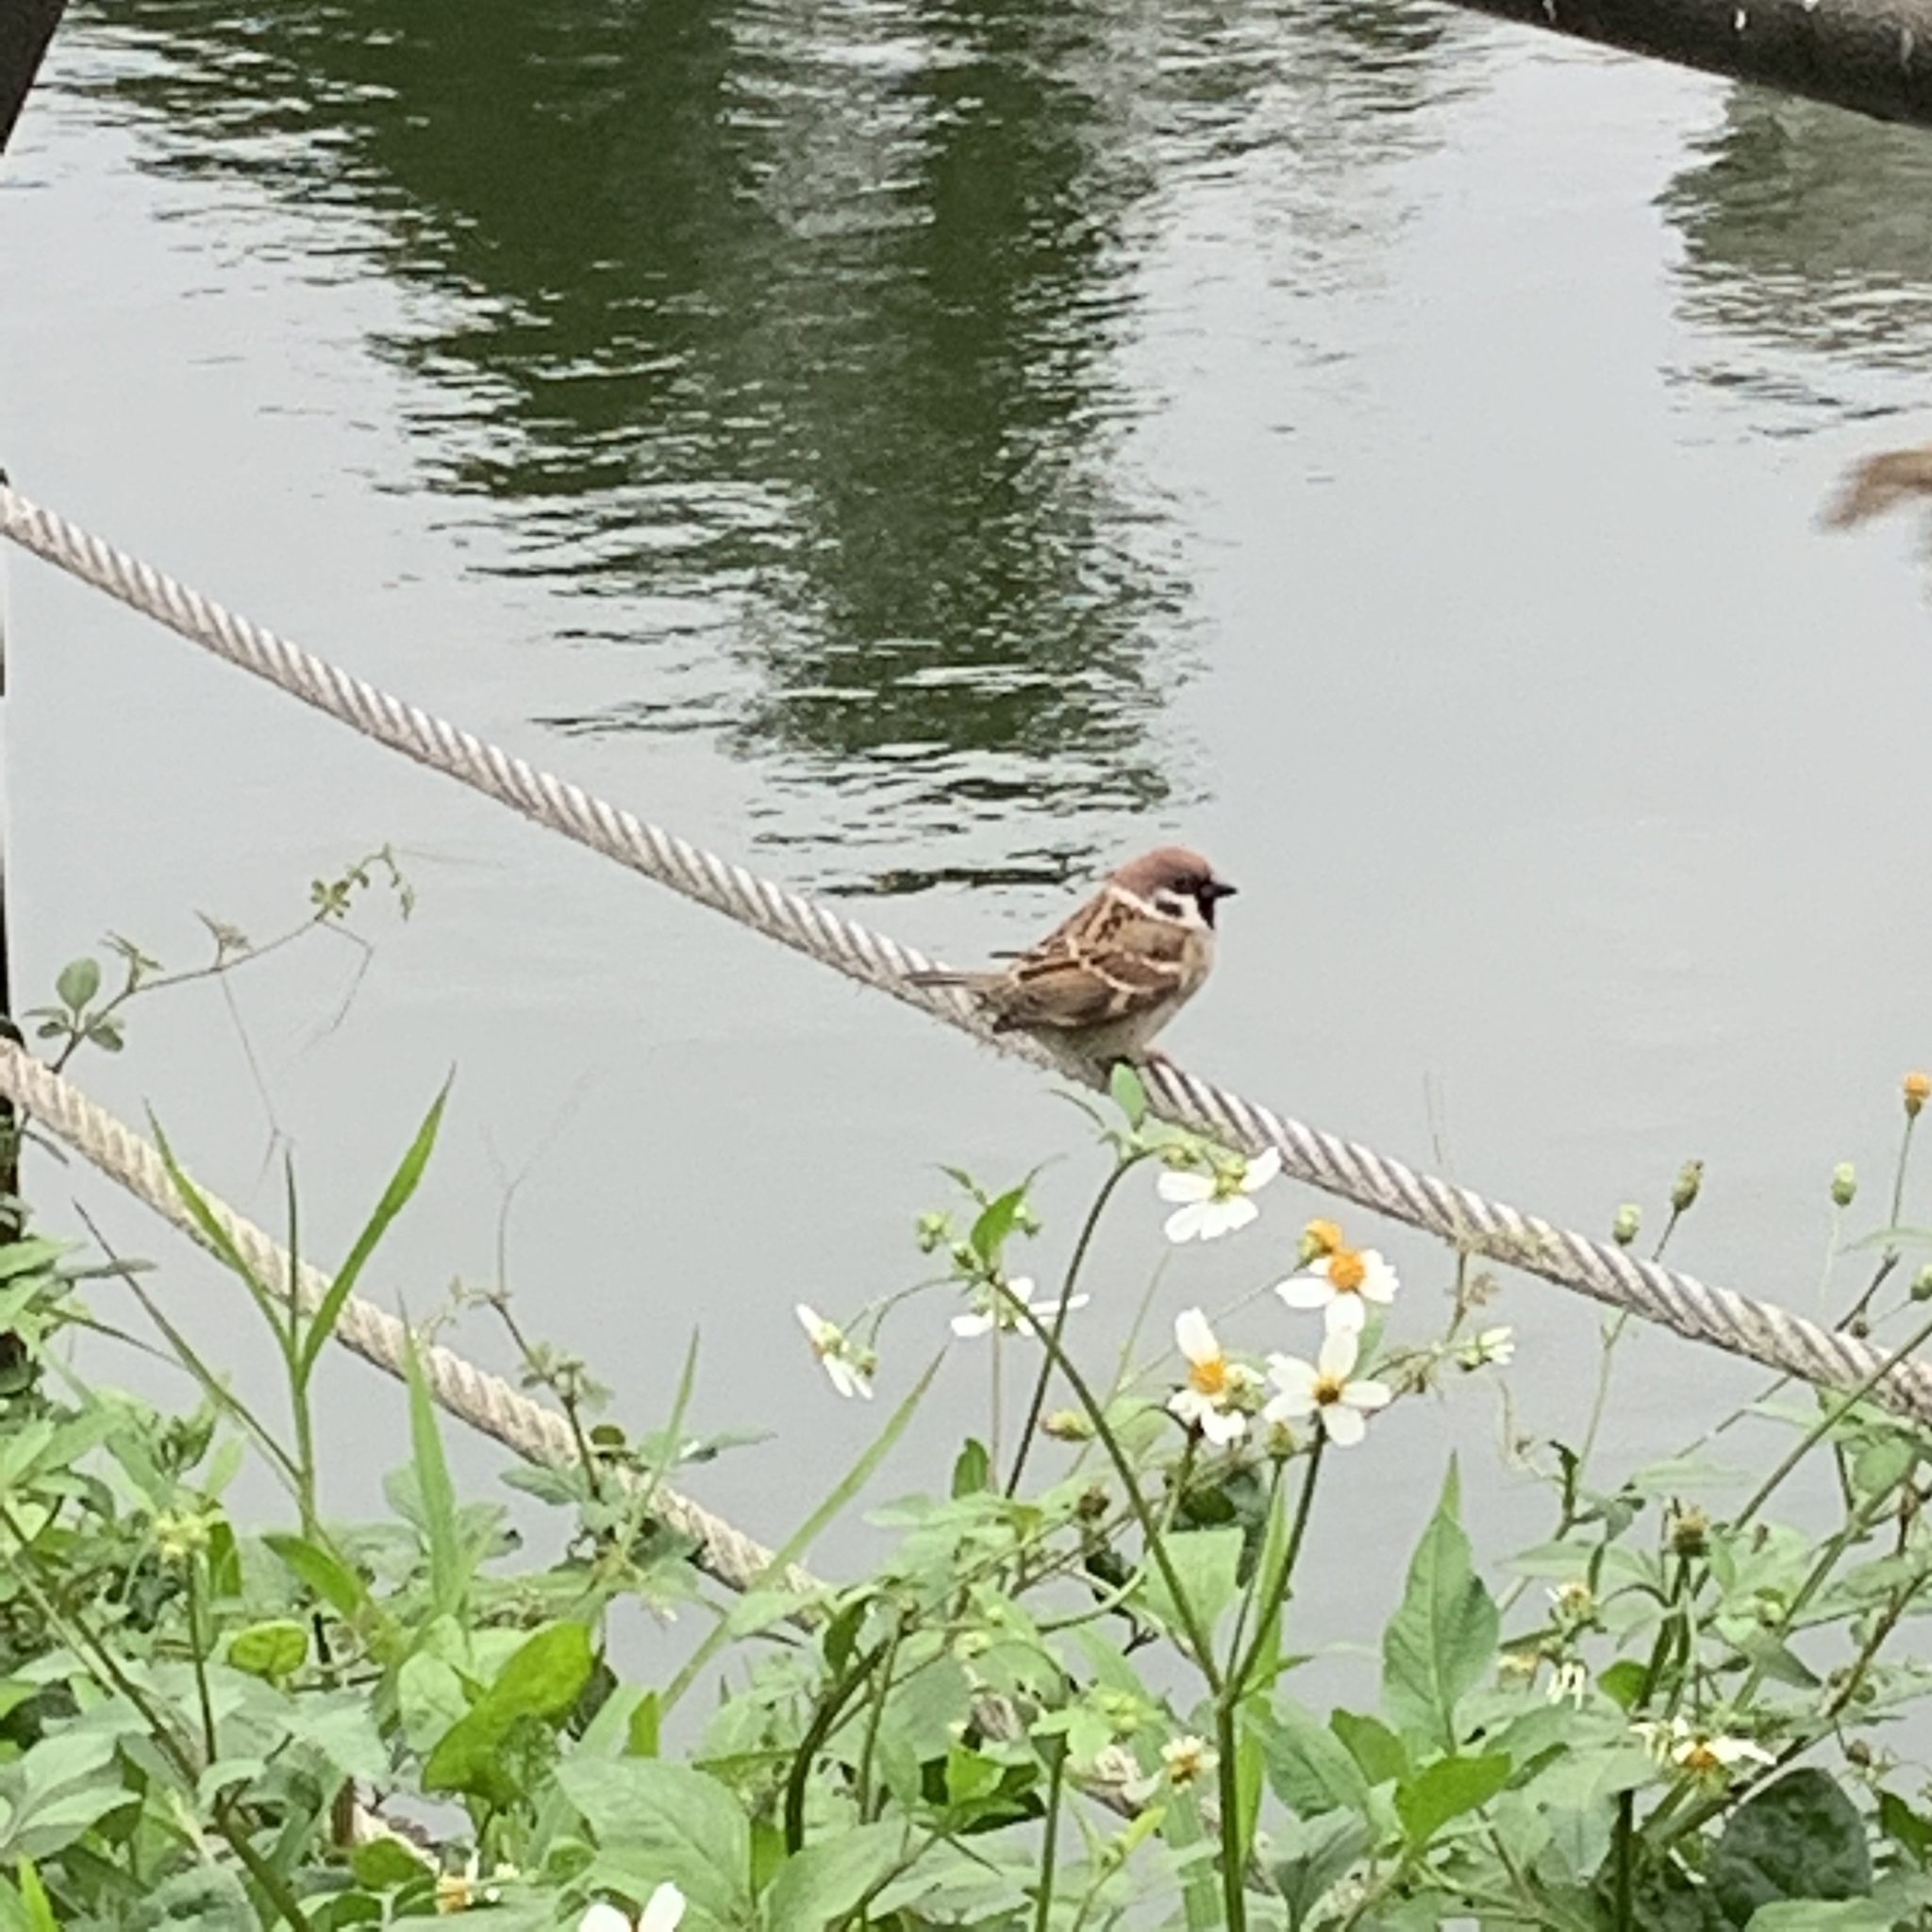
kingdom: Animalia
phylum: Chordata
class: Aves
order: Passeriformes
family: Passeridae
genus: Passer
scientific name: Passer montanus
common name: Eurasian tree sparrow
